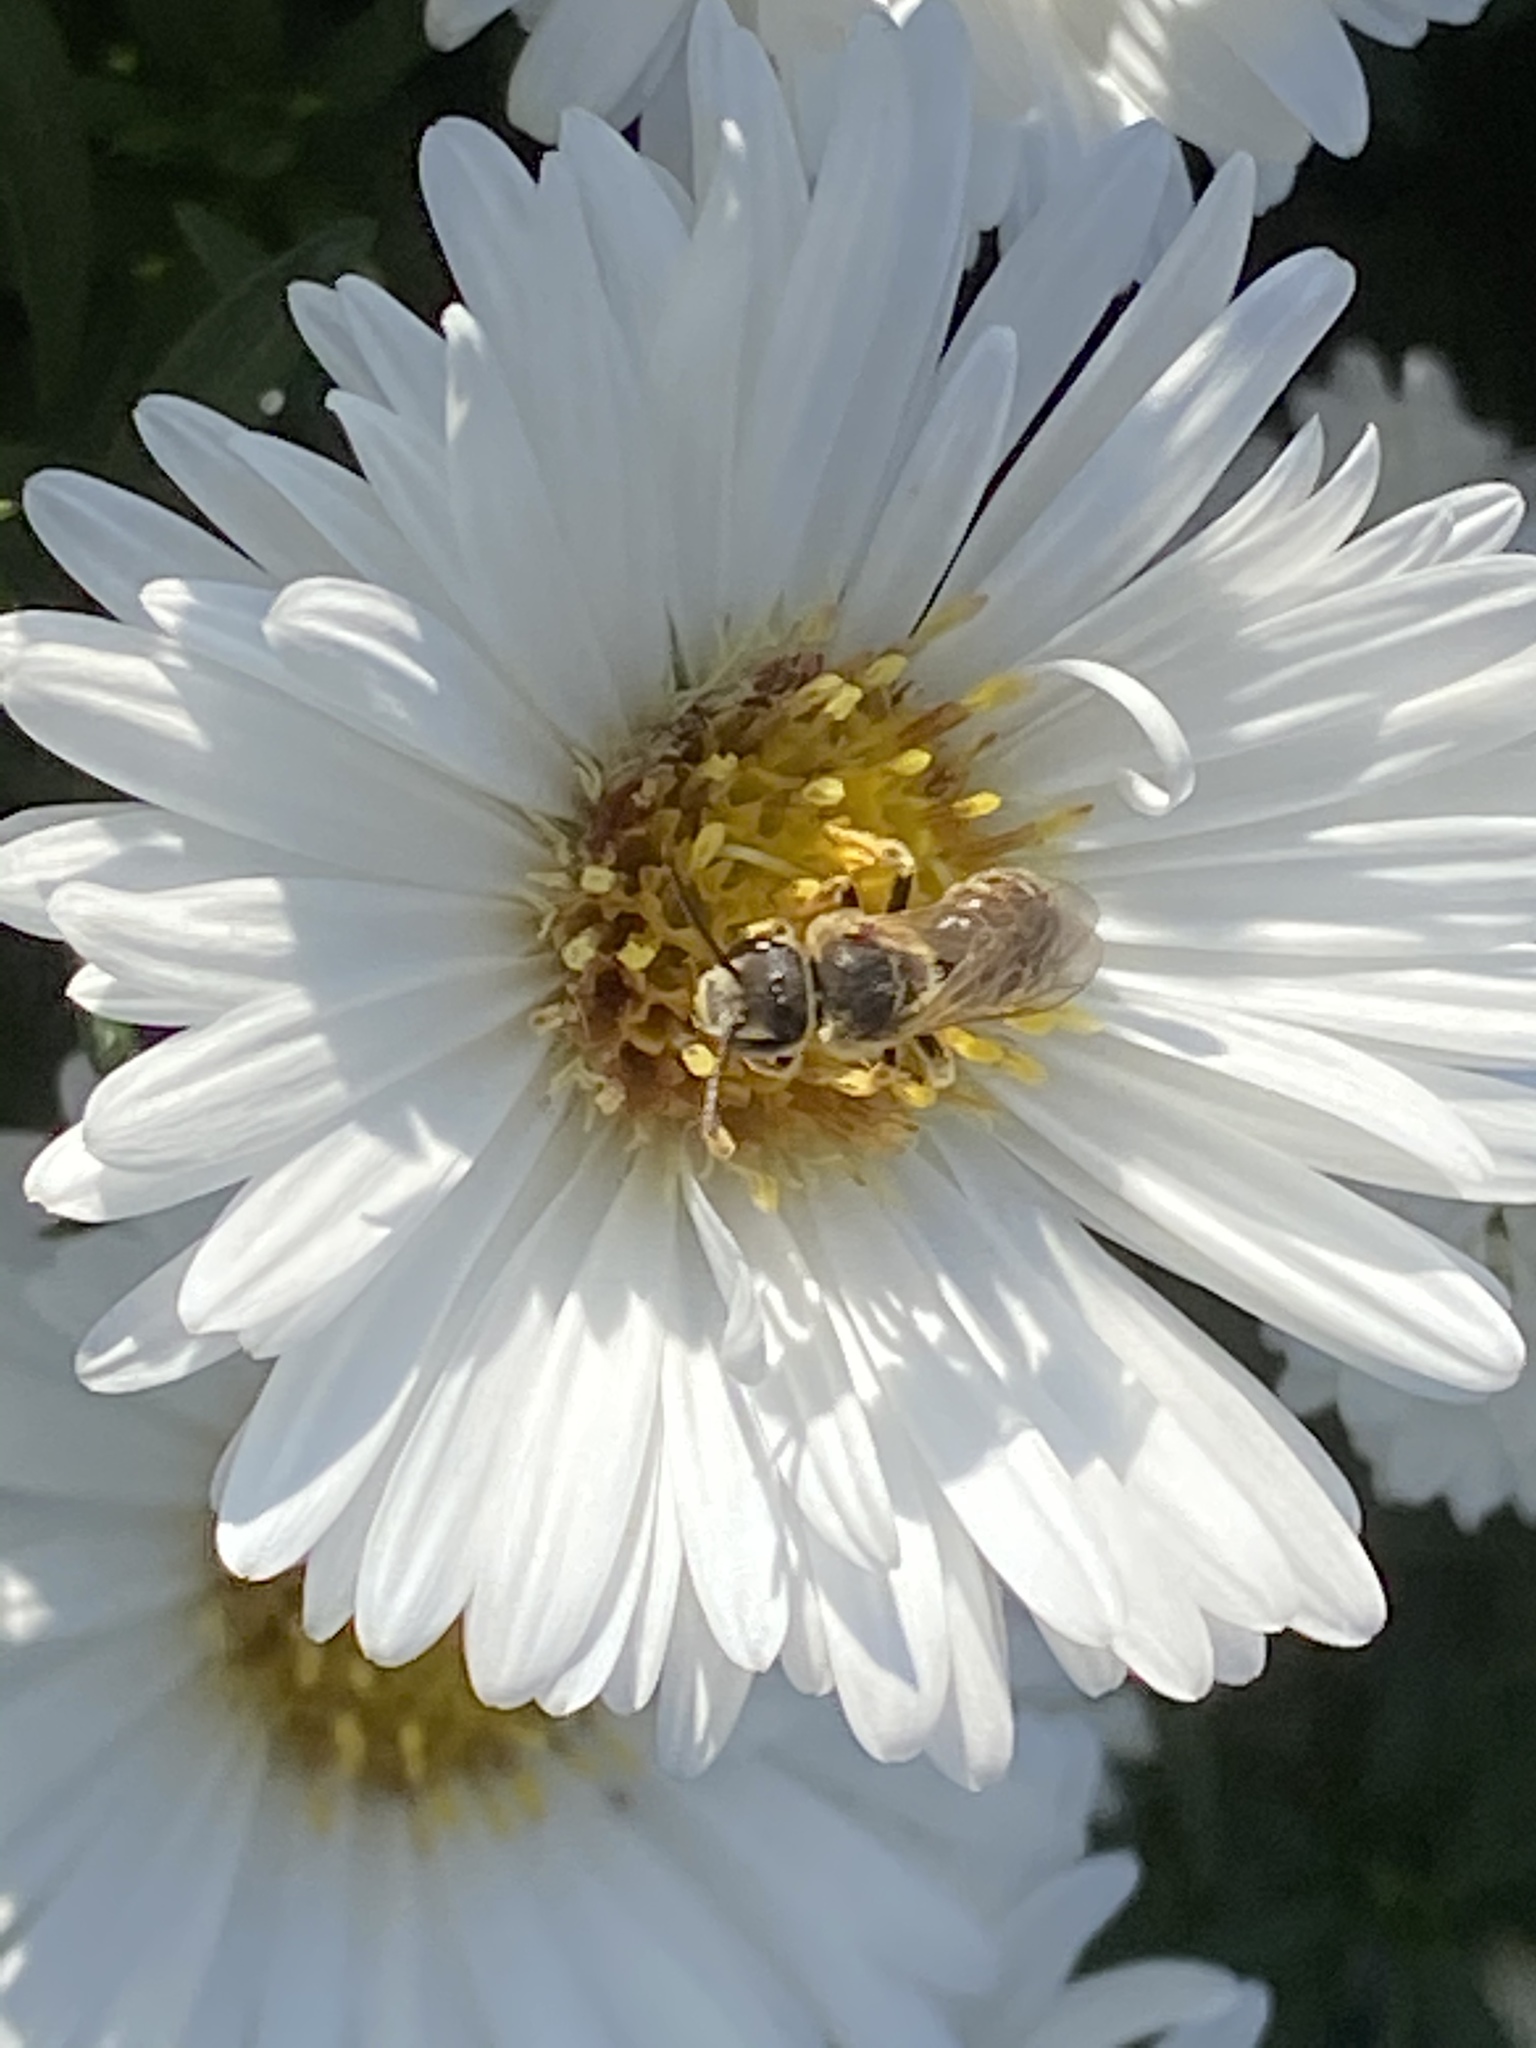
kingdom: Animalia
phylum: Arthropoda
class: Insecta
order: Hymenoptera
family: Halictidae
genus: Halictus
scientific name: Halictus ligatus
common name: Ligated furrow bee
